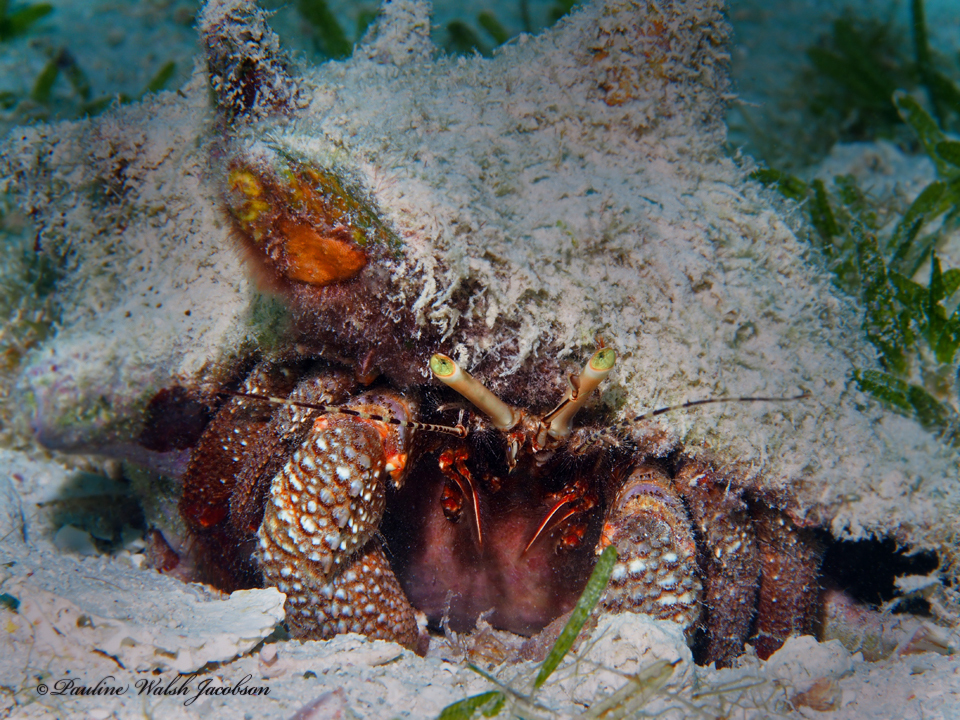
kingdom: Animalia
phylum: Arthropoda
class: Malacostraca
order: Decapoda
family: Diogenidae
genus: Petrochirus
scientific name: Petrochirus diogenes
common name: Giant hermit crab
